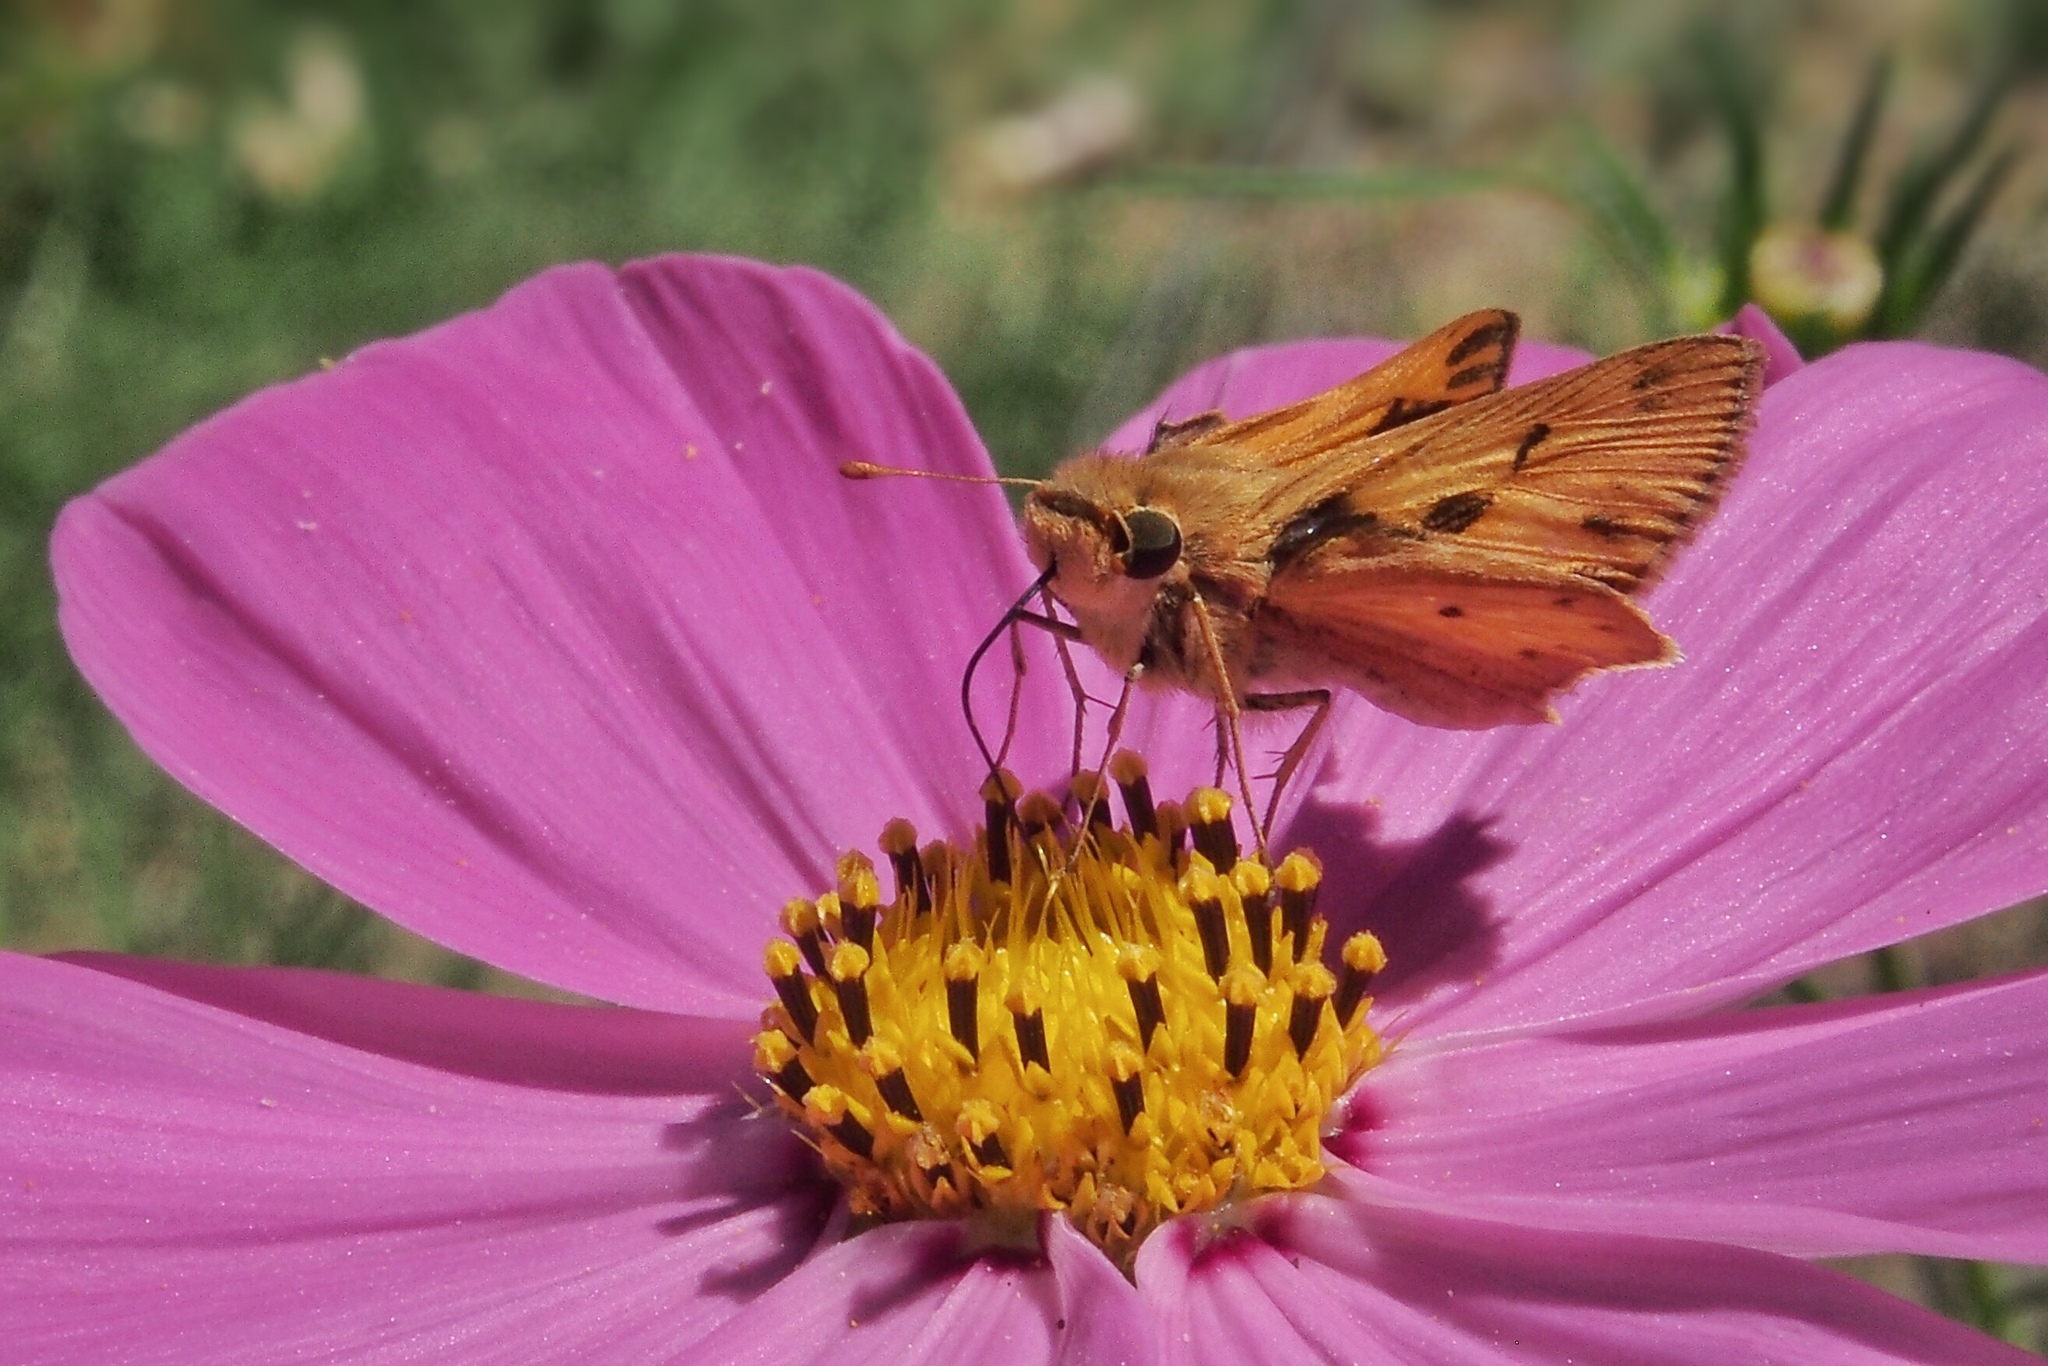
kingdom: Animalia
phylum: Arthropoda
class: Insecta
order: Lepidoptera
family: Hesperiidae
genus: Hylephila
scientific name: Hylephila phyleus
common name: Fiery skipper
